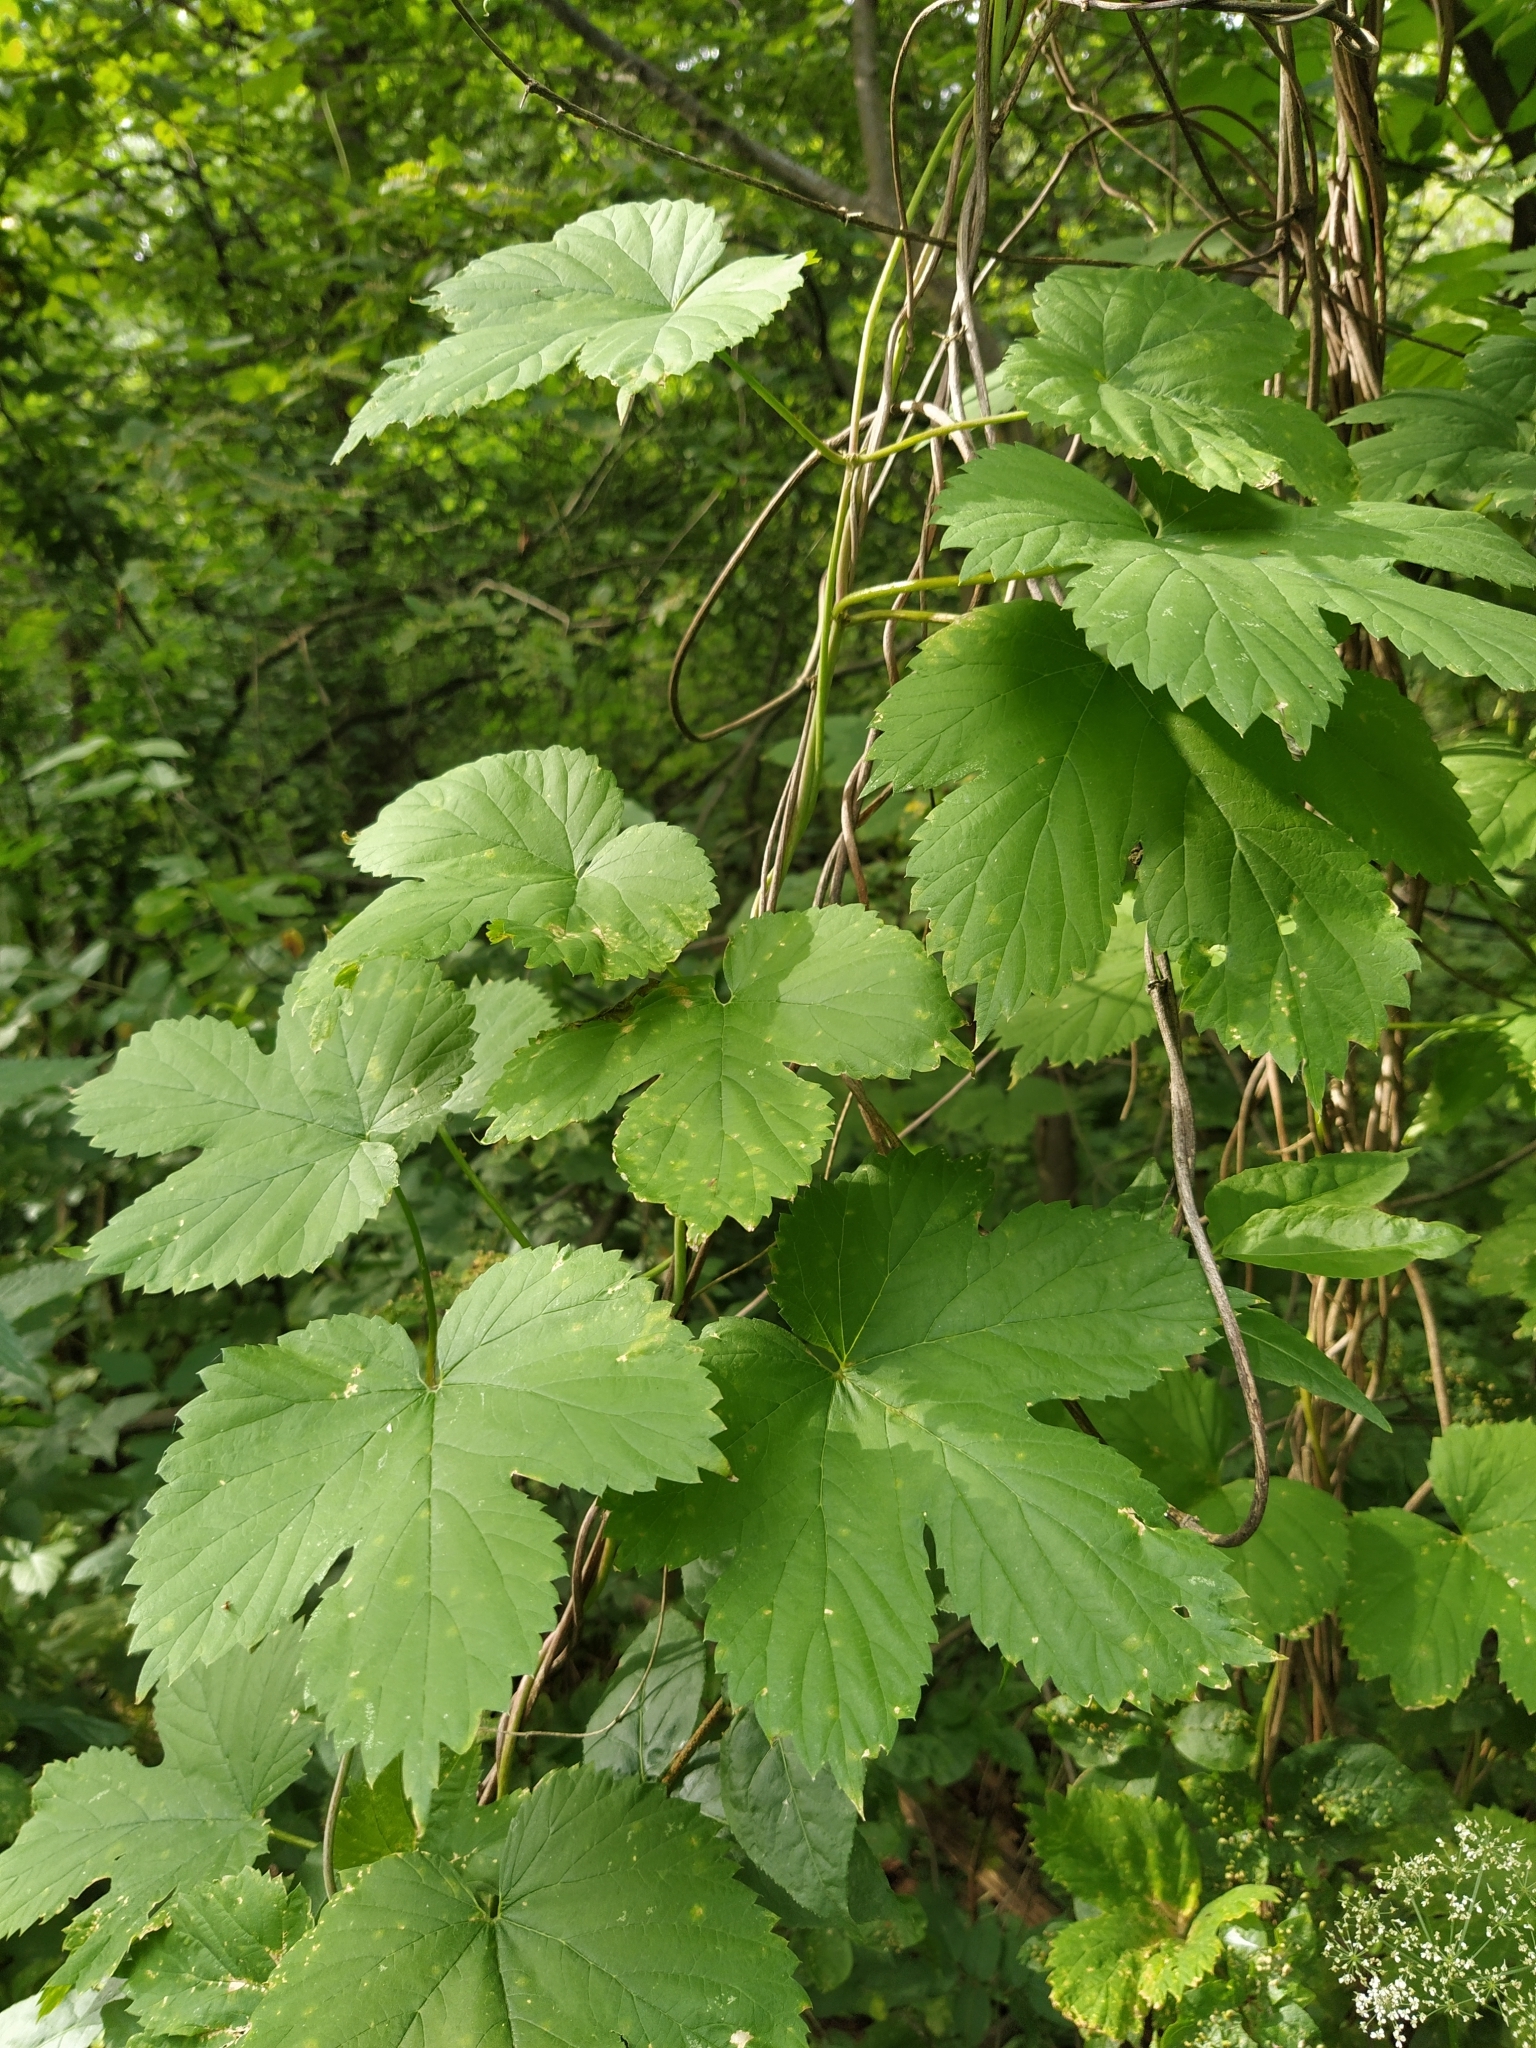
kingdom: Plantae
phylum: Tracheophyta
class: Magnoliopsida
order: Rosales
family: Cannabaceae
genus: Humulus
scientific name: Humulus lupulus
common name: Hop
